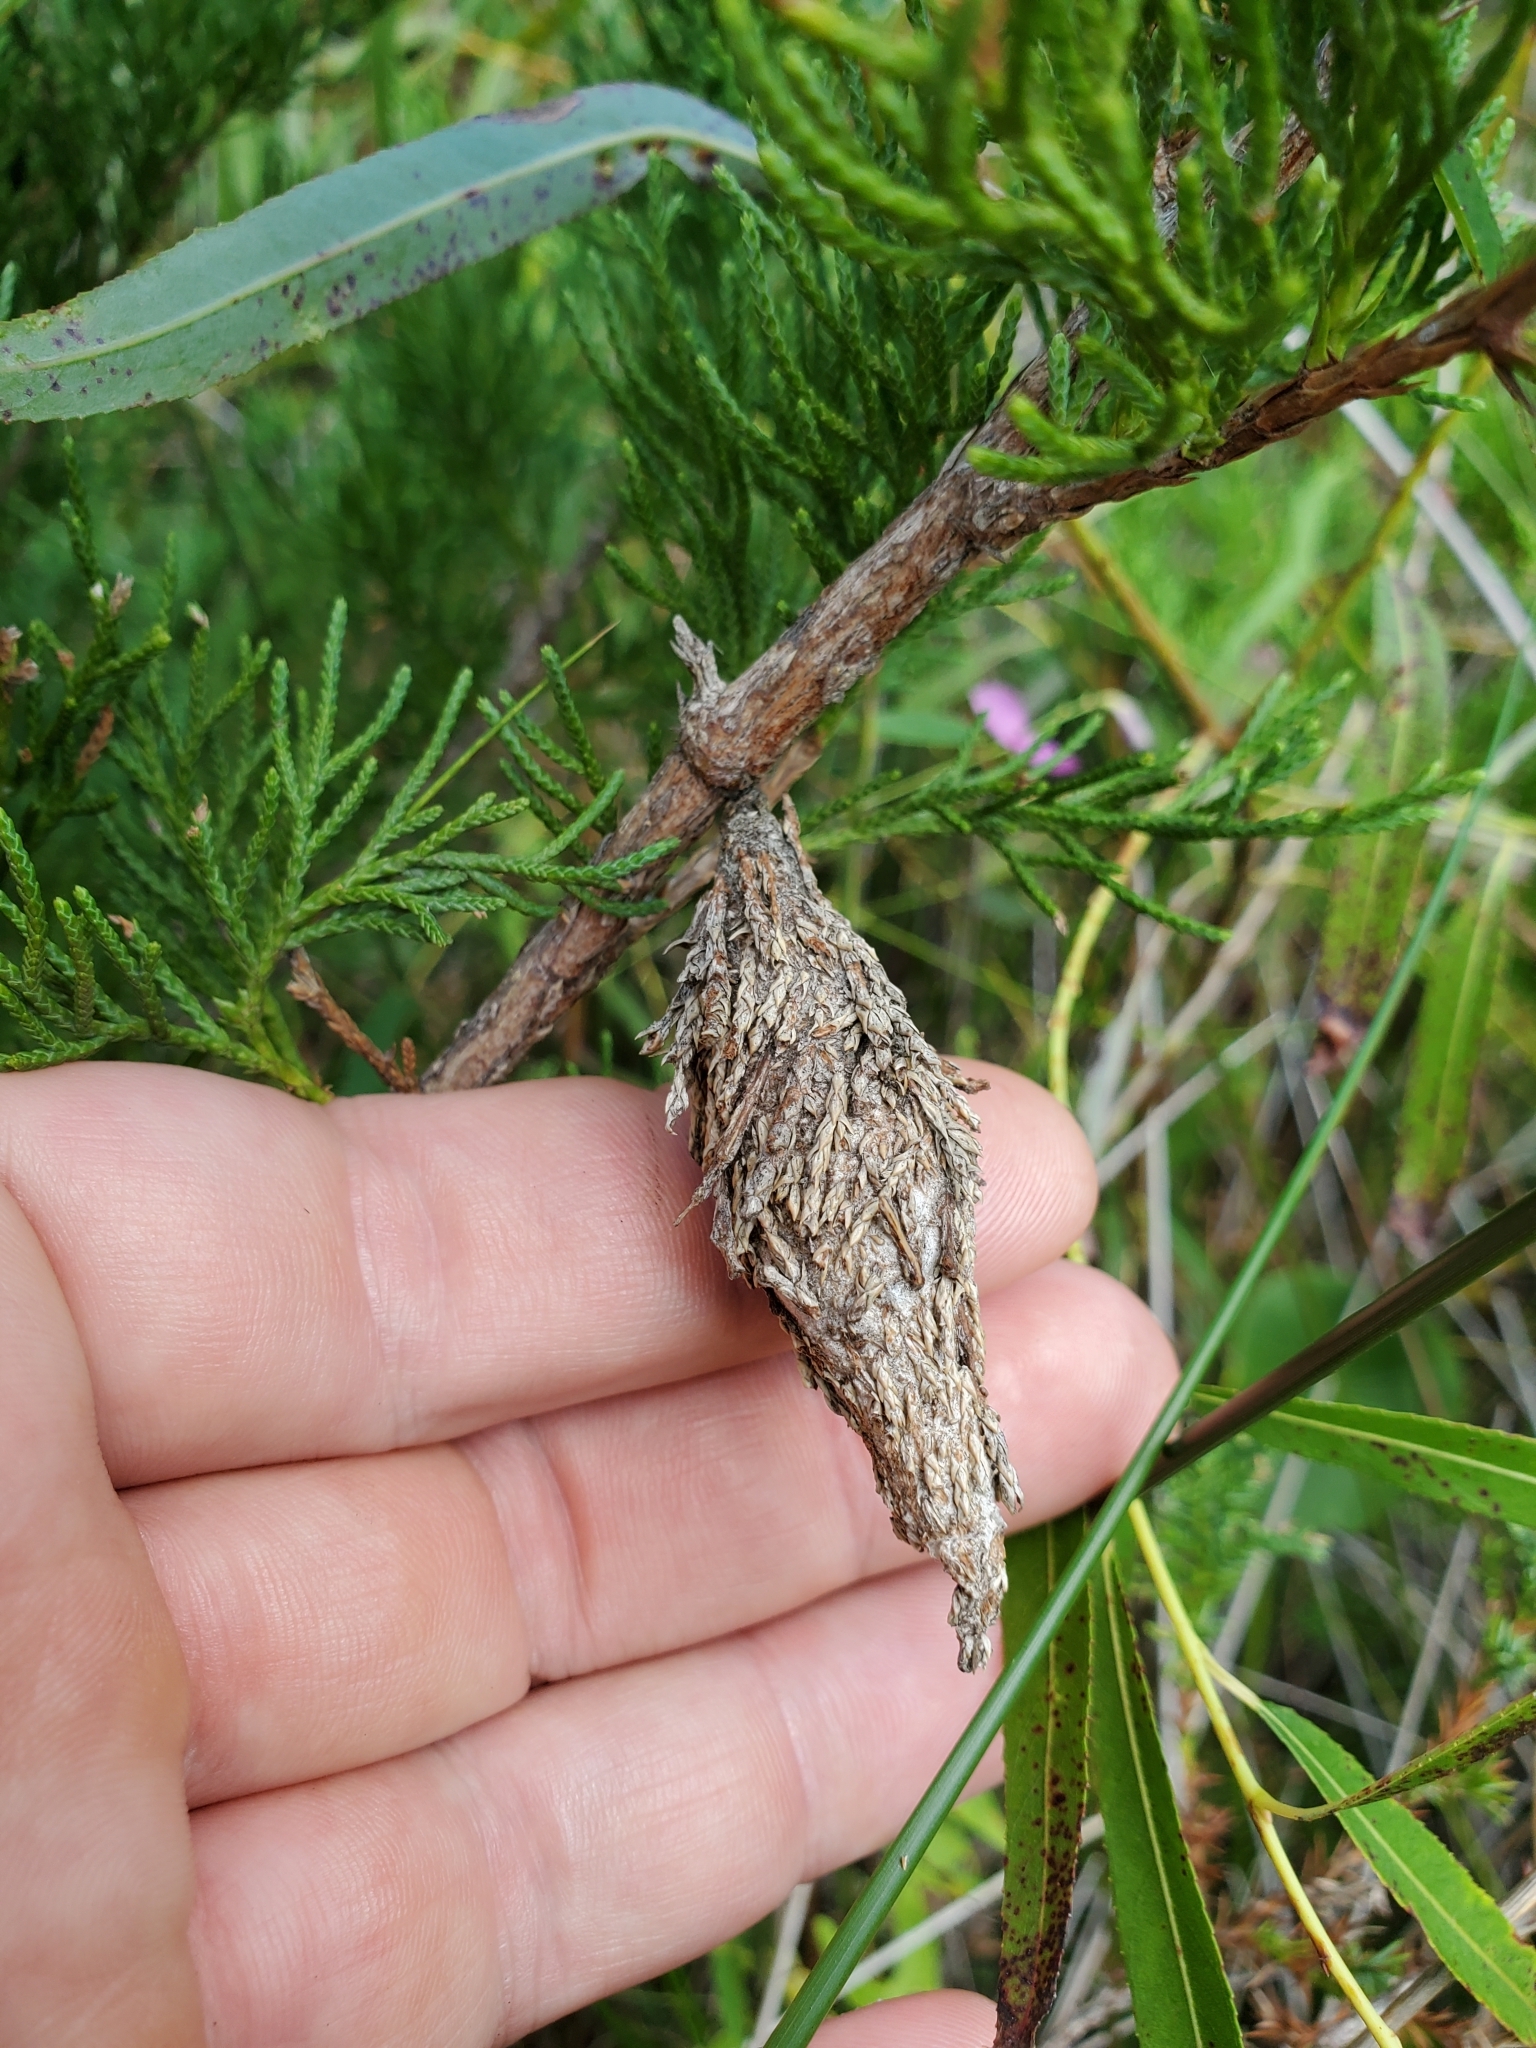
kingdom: Animalia
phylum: Arthropoda
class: Insecta
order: Lepidoptera
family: Psychidae
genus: Thyridopteryx
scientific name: Thyridopteryx ephemeraeformis
